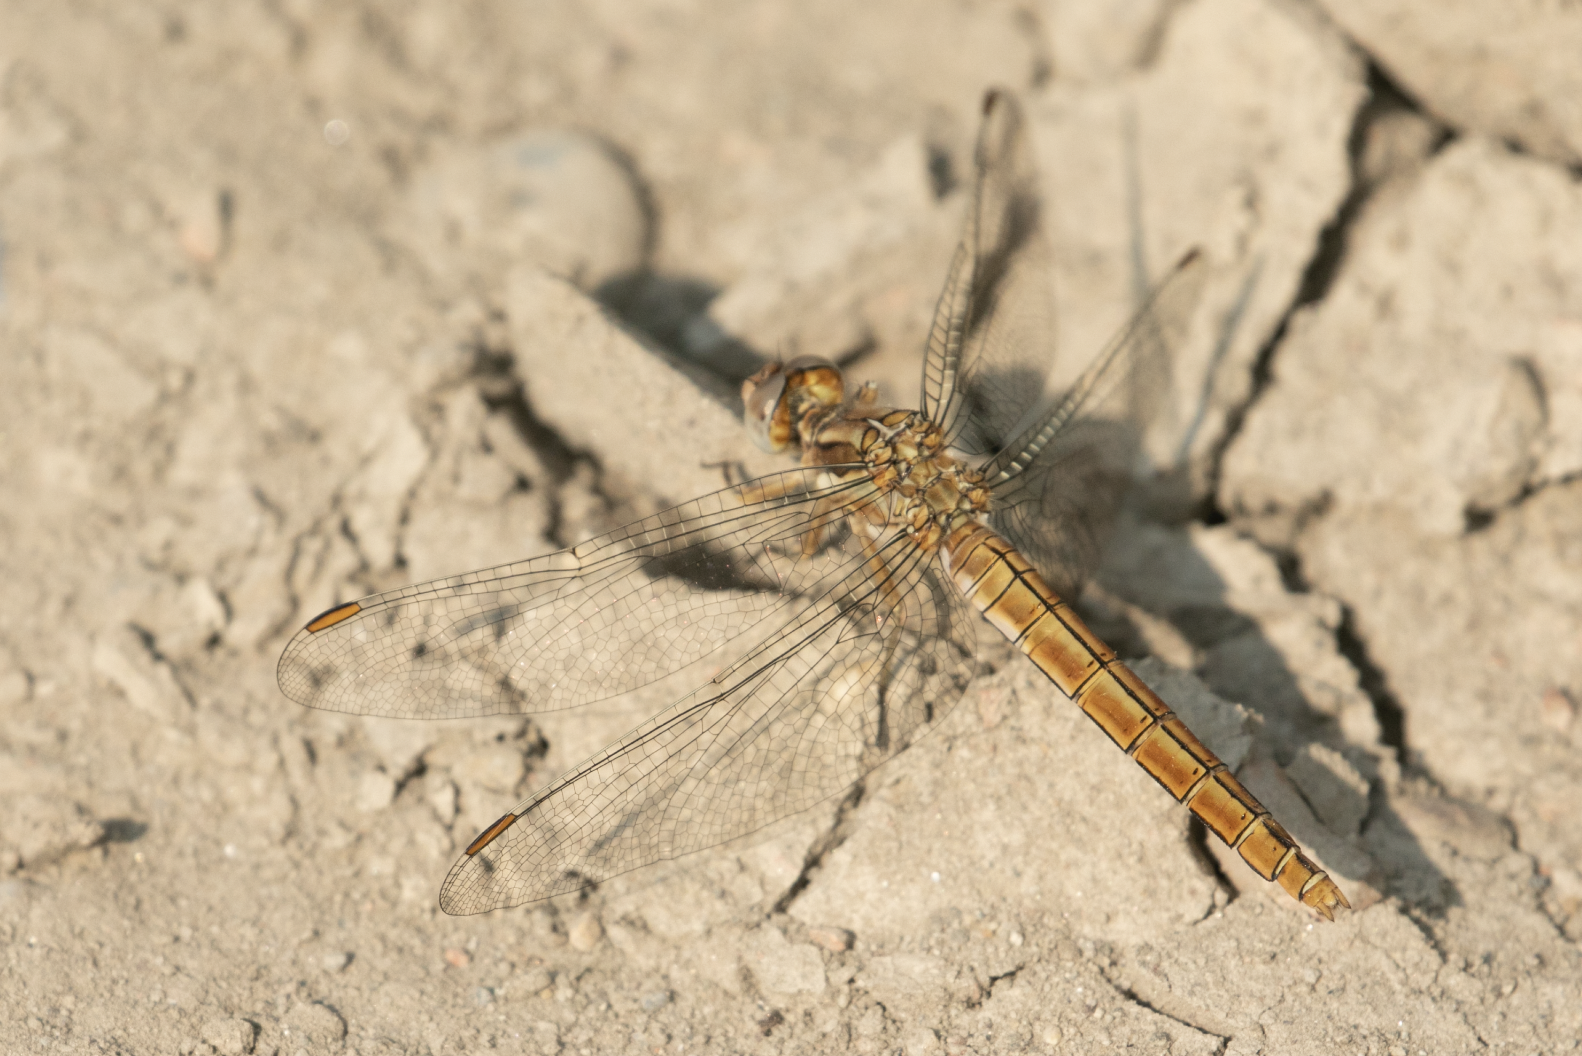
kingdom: Animalia
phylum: Arthropoda
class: Insecta
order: Odonata
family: Libellulidae
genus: Orthetrum
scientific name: Orthetrum brunneum
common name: Southern skimmer
